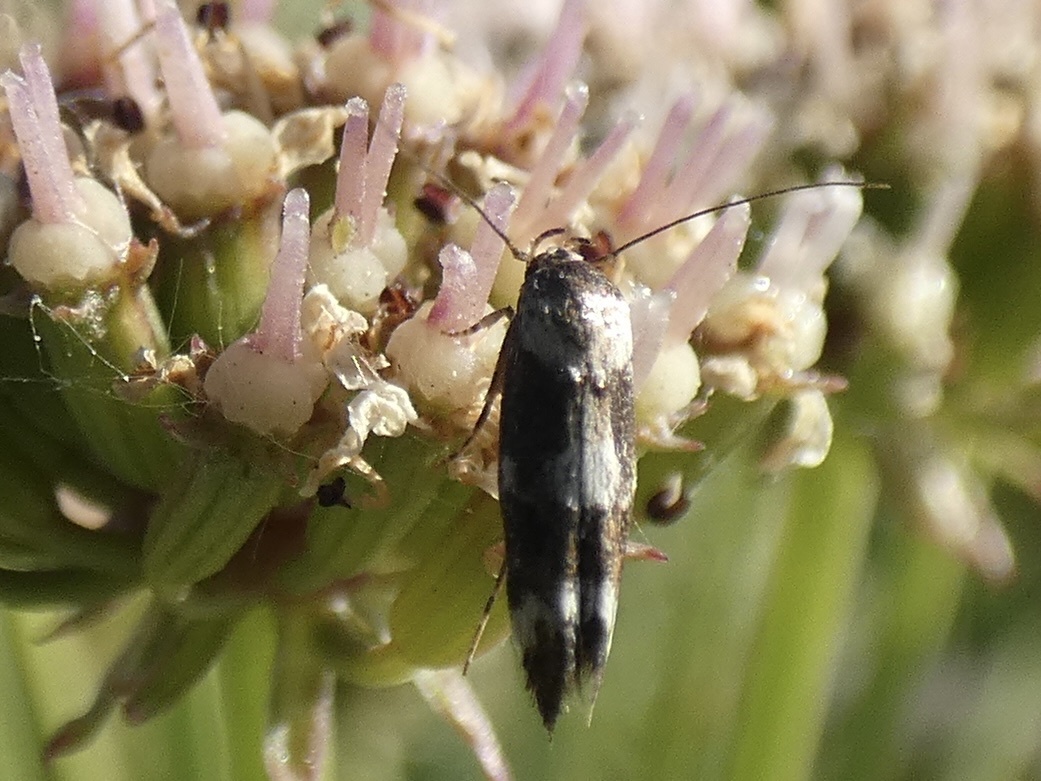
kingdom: Animalia
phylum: Arthropoda
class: Insecta
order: Lepidoptera
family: Momphidae
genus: Mompha
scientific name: Mompha subbistrigella
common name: Garden cosmet
